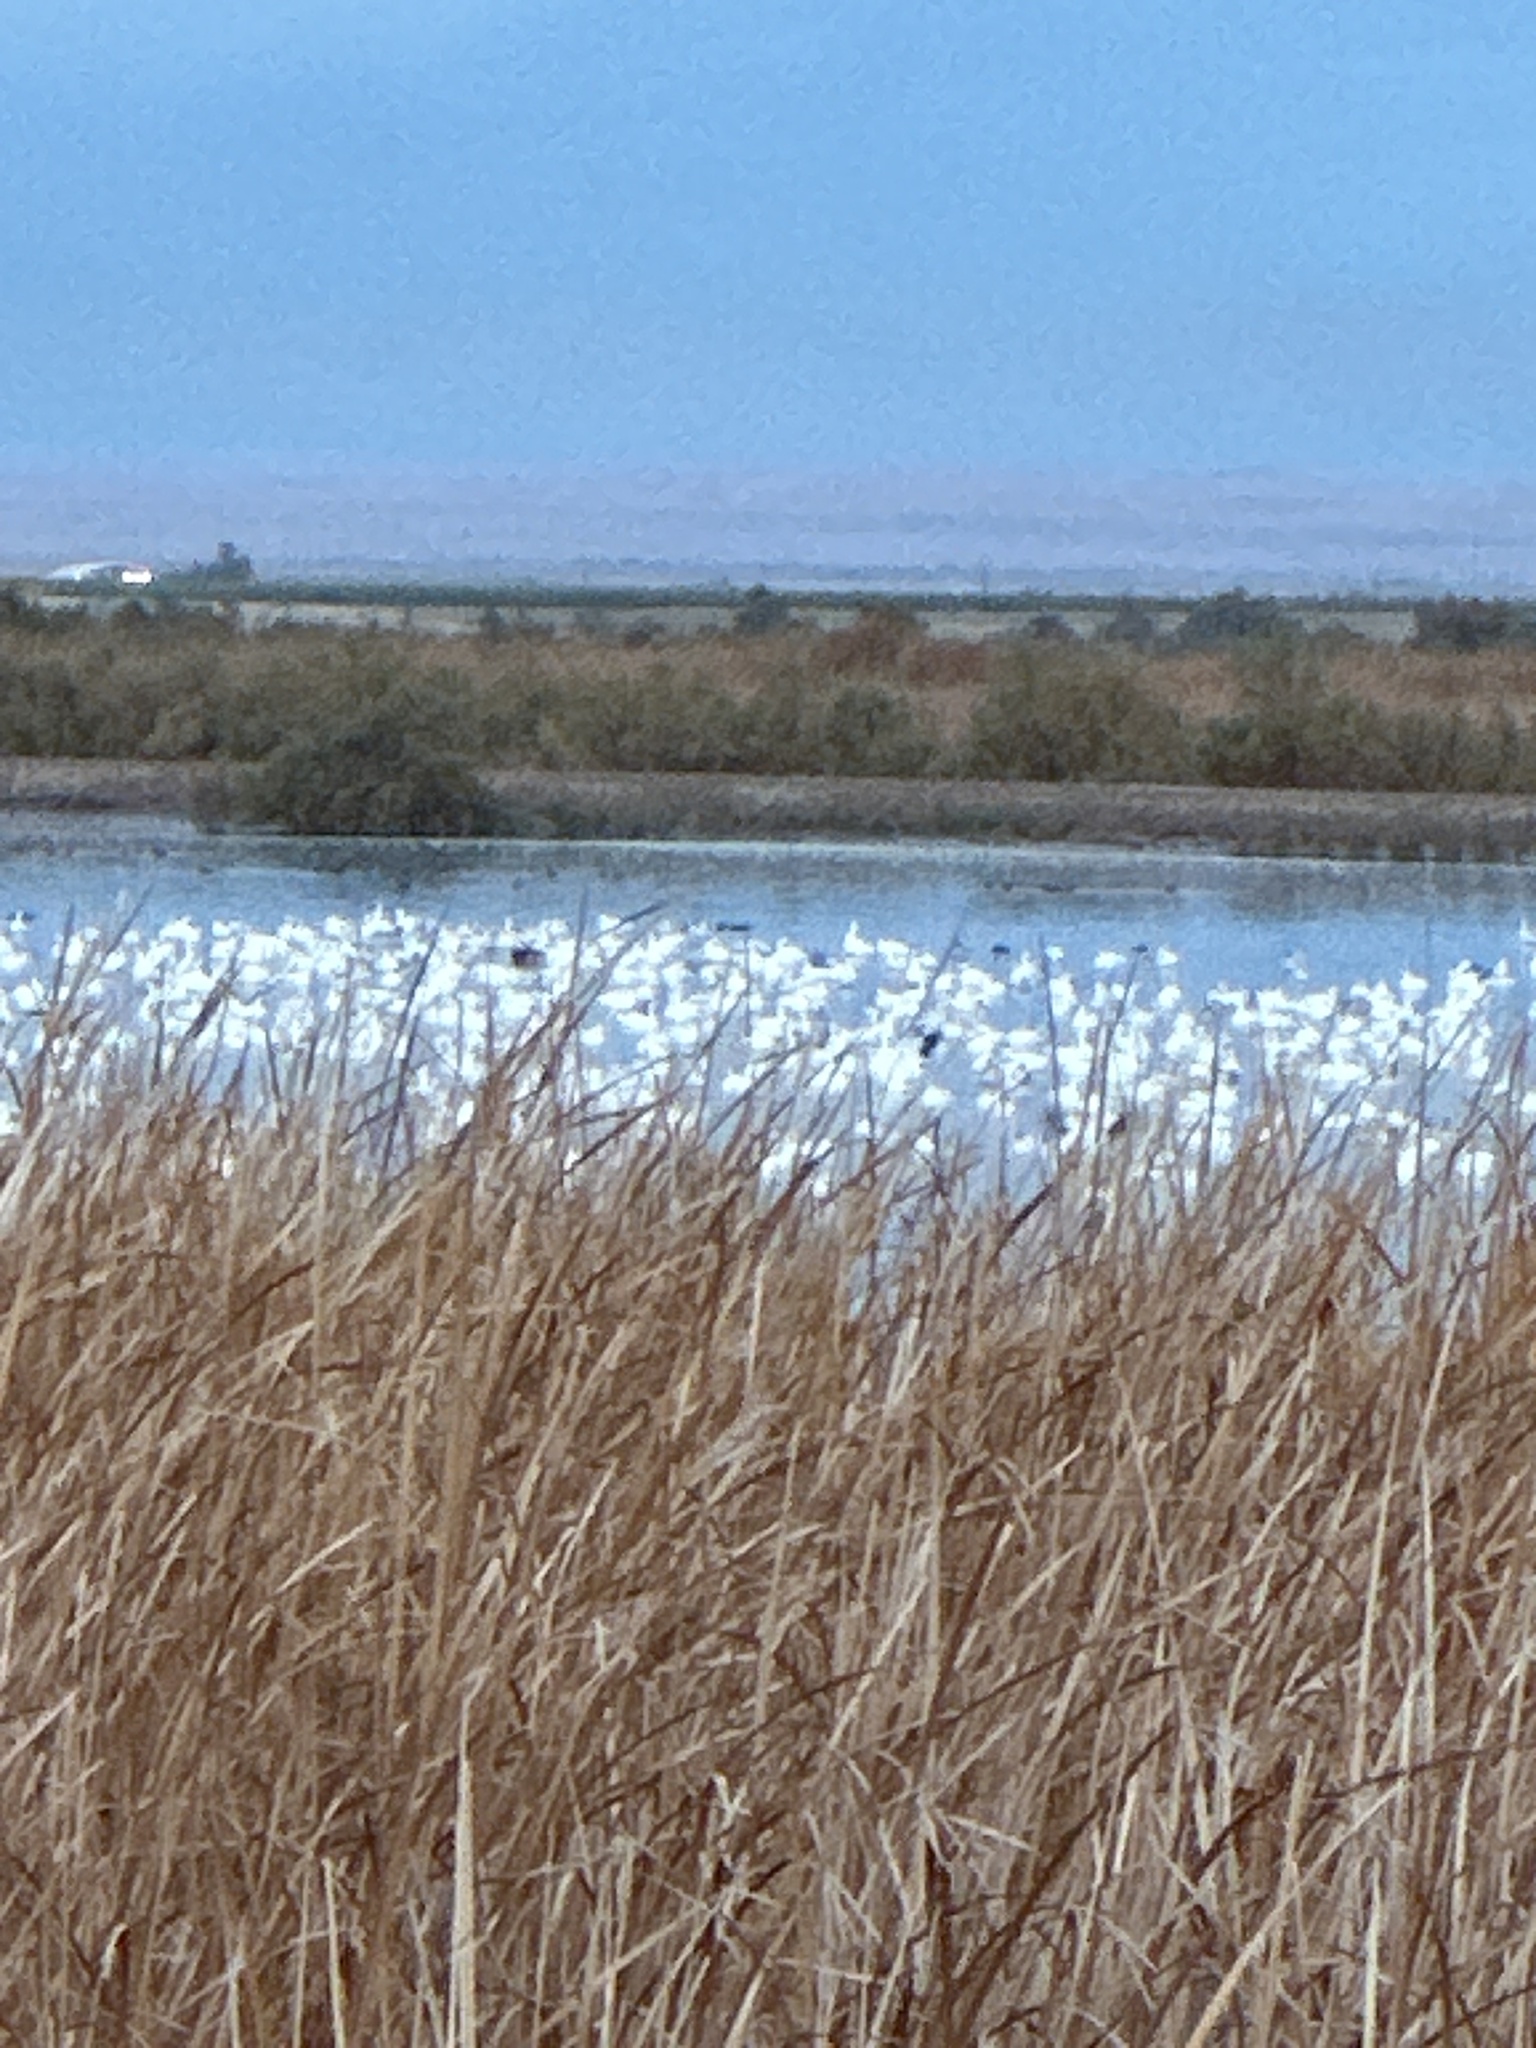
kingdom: Animalia
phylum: Chordata
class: Aves
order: Anseriformes
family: Anatidae
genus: Anser
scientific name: Anser caerulescens
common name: Snow goose
